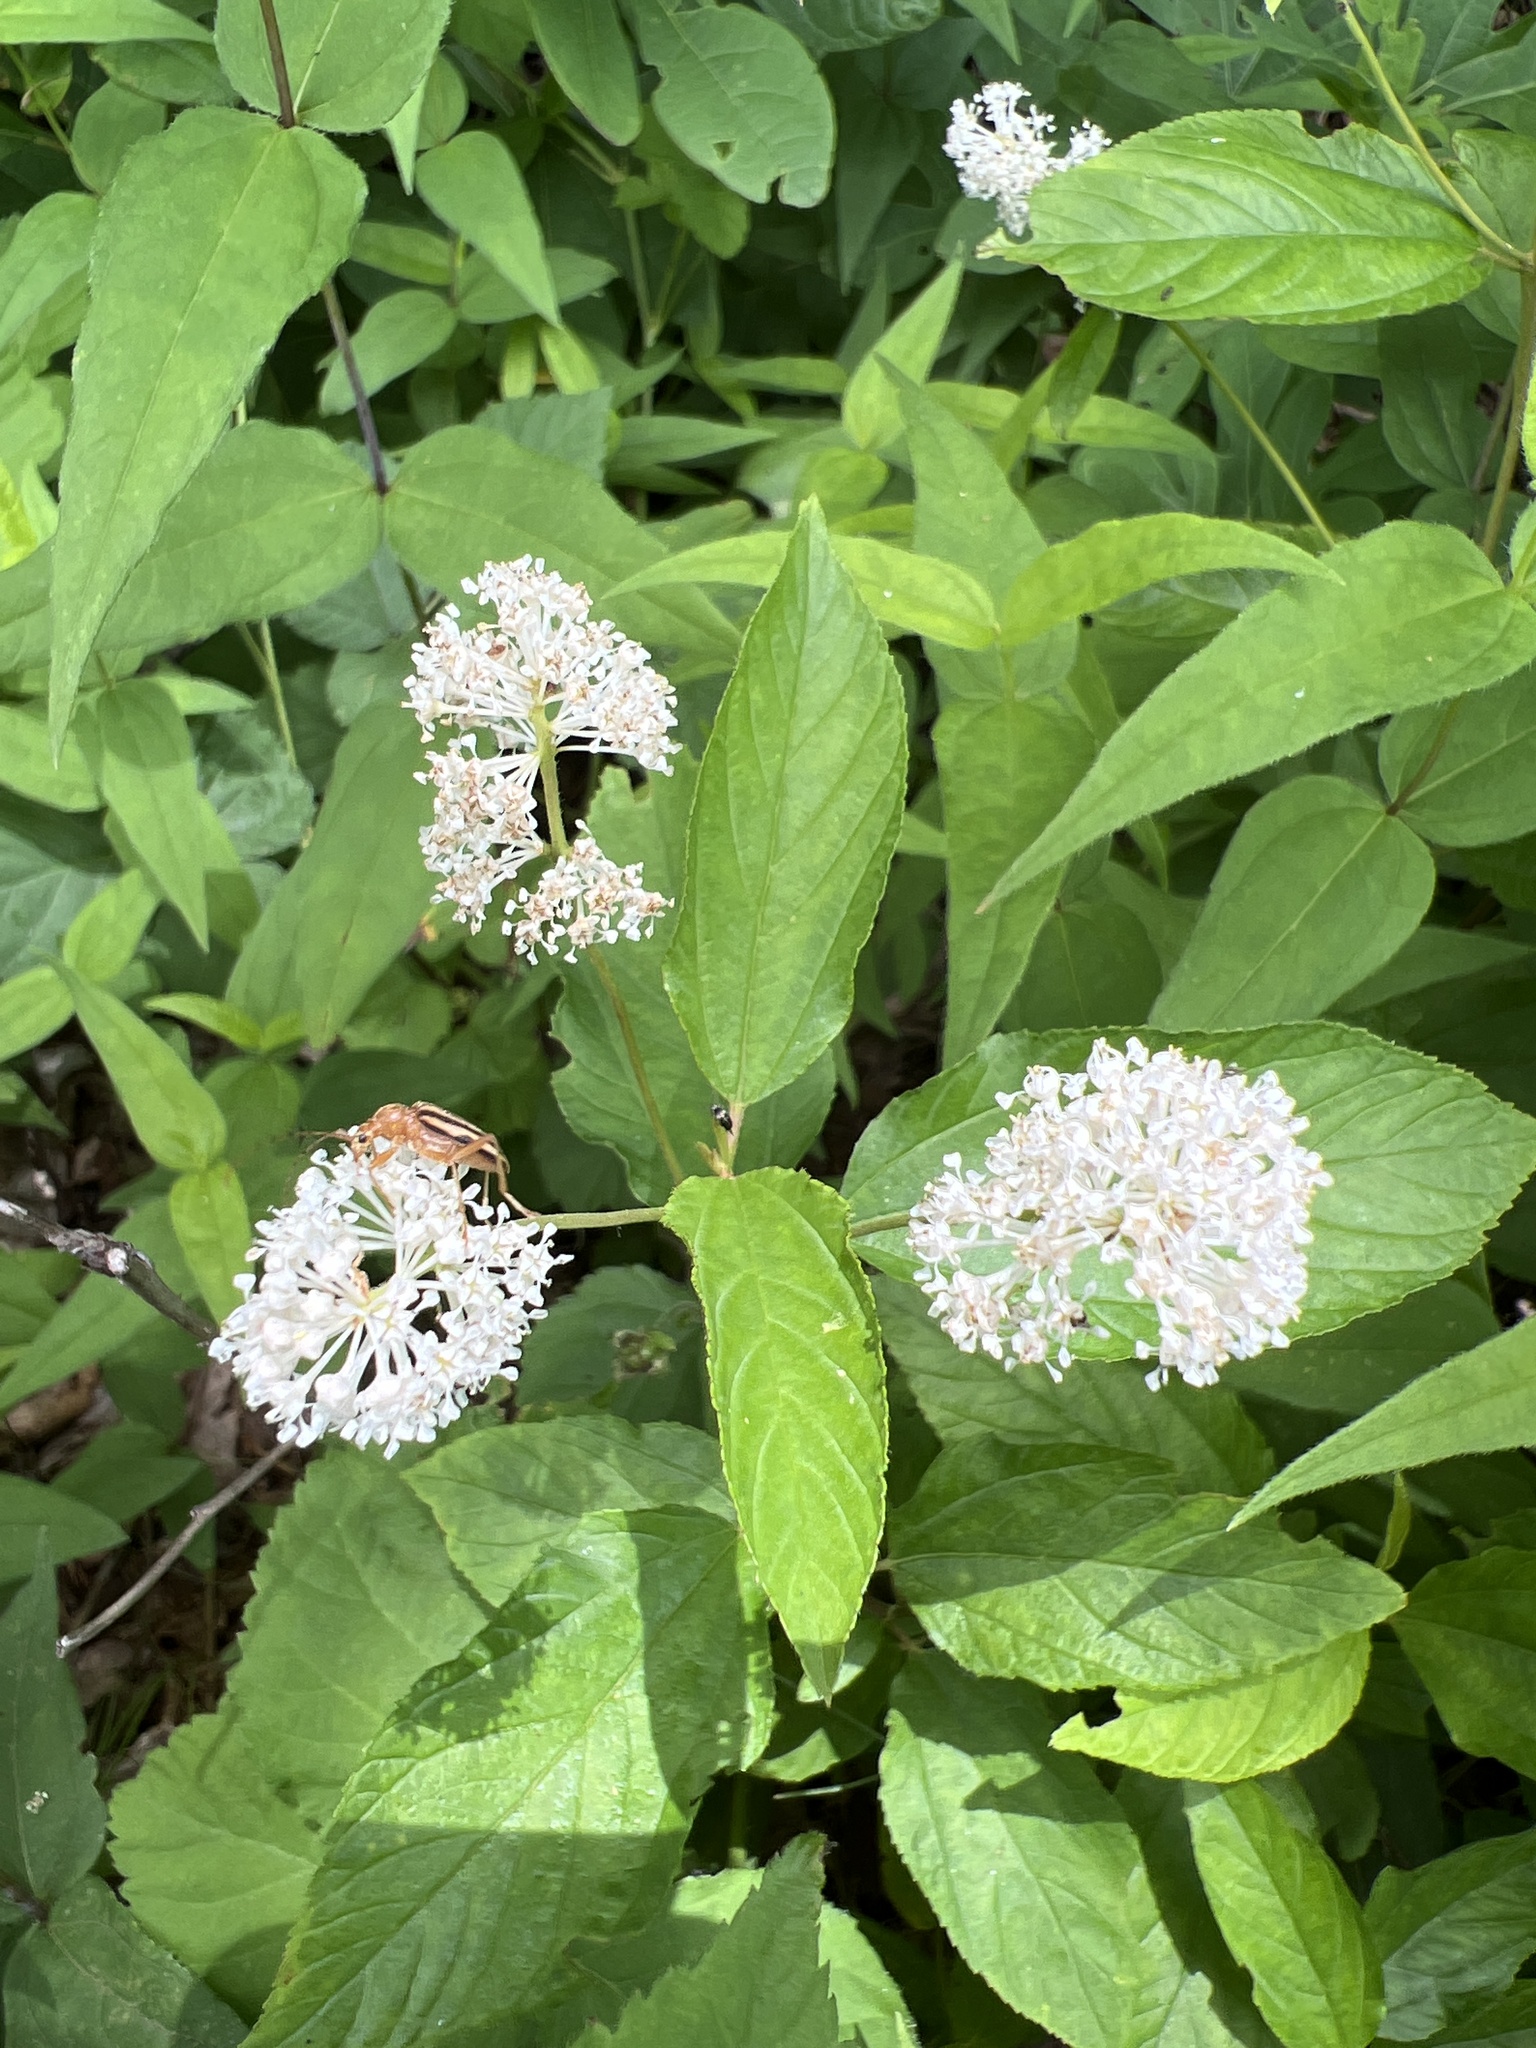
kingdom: Plantae
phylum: Tracheophyta
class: Magnoliopsida
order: Rosales
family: Rhamnaceae
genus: Ceanothus
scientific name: Ceanothus americanus
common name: Redroot
